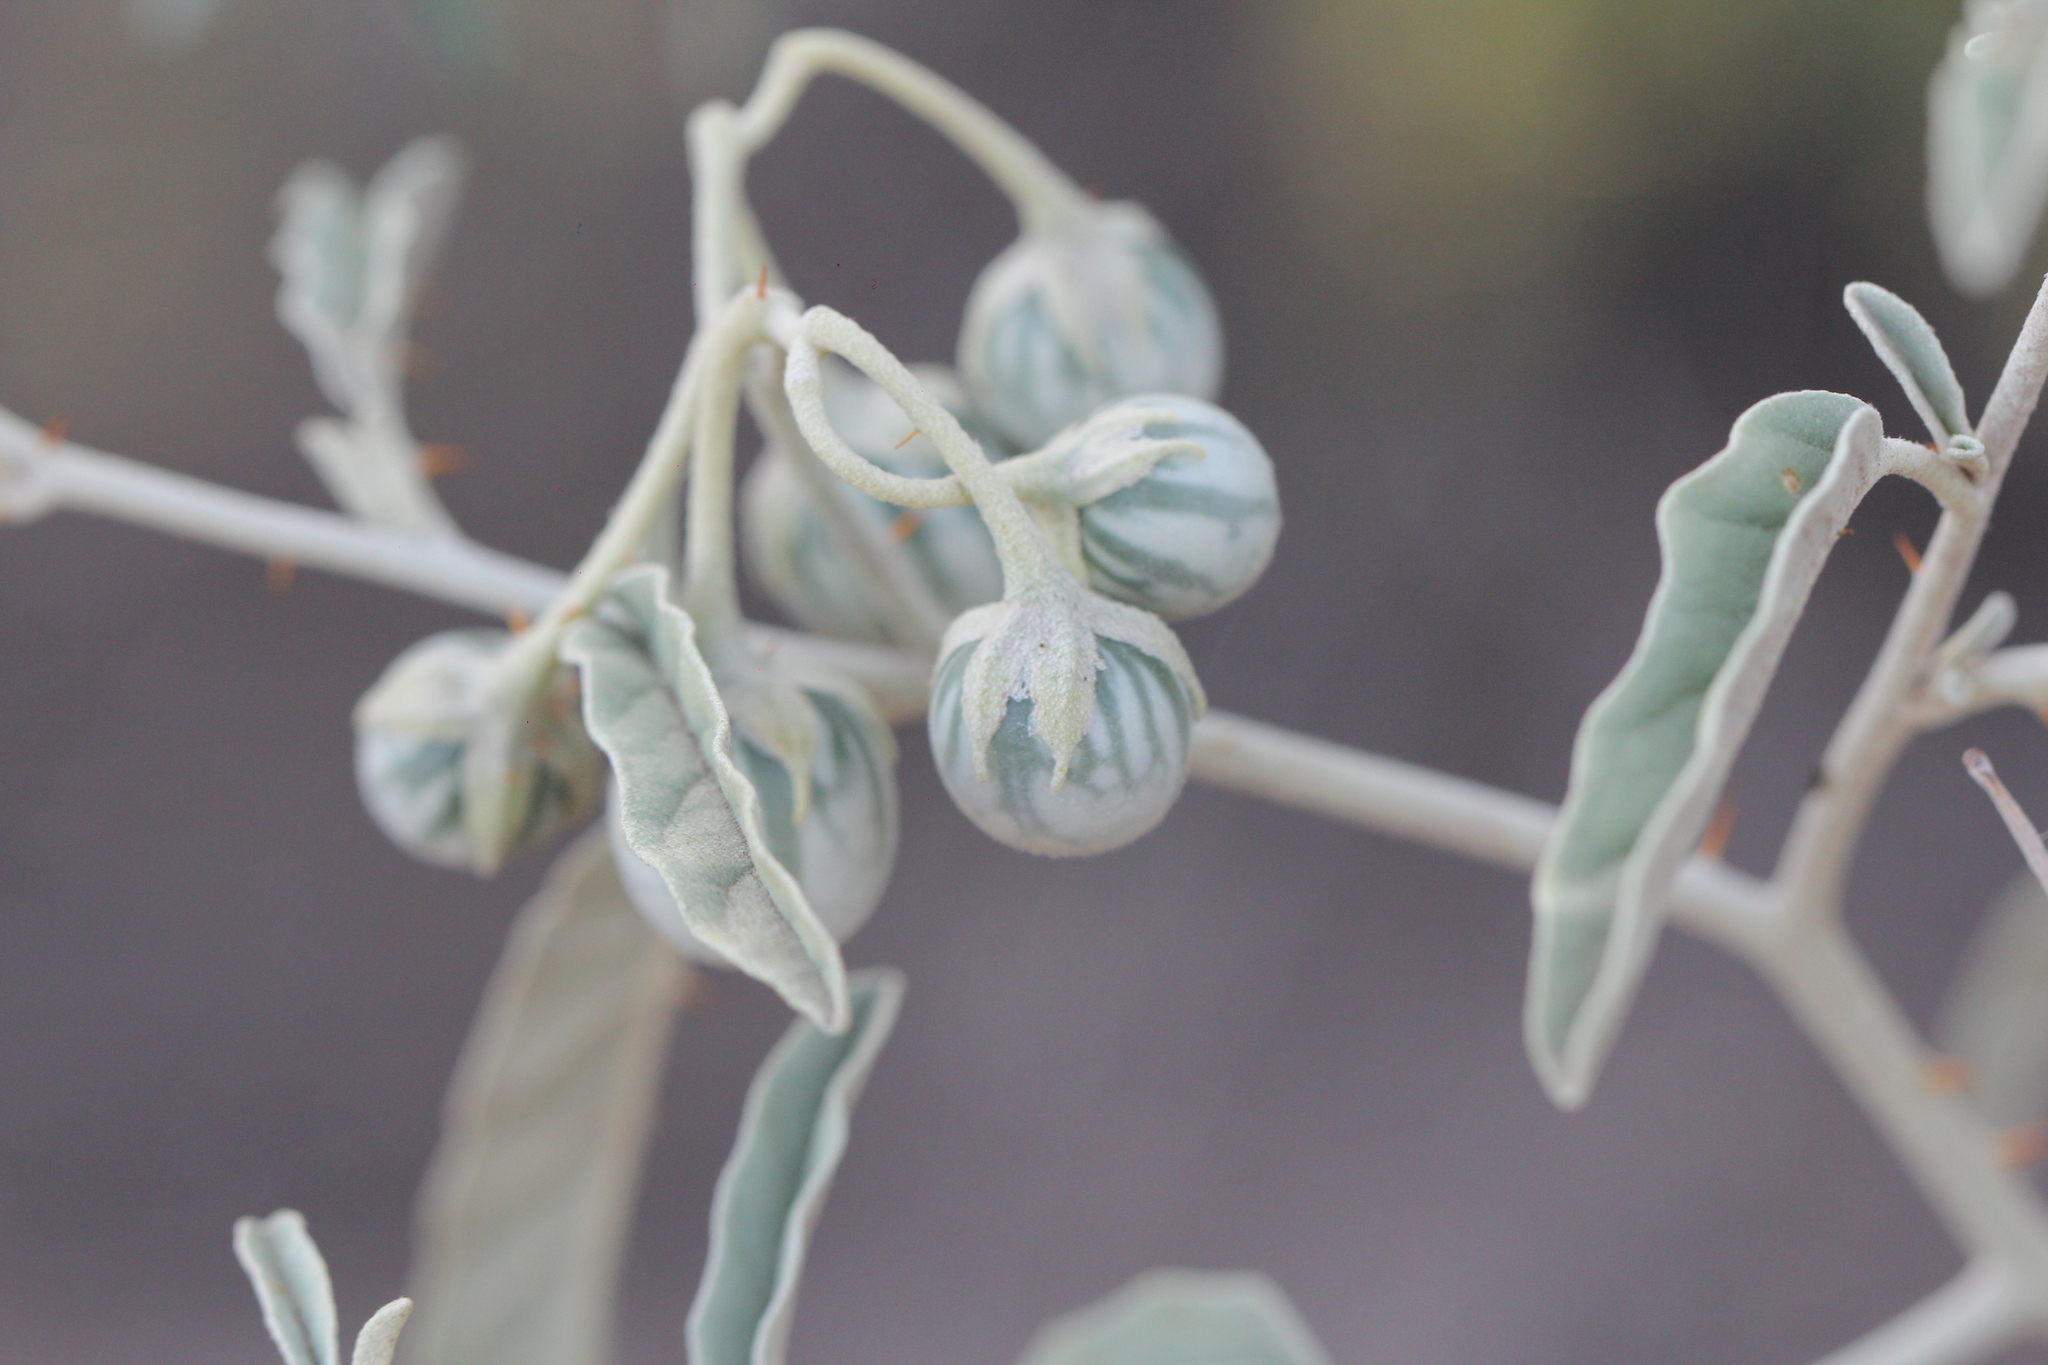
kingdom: Plantae
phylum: Tracheophyta
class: Magnoliopsida
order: Solanales
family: Solanaceae
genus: Solanum
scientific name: Solanum elaeagnifolium
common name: Silverleaf nightshade
